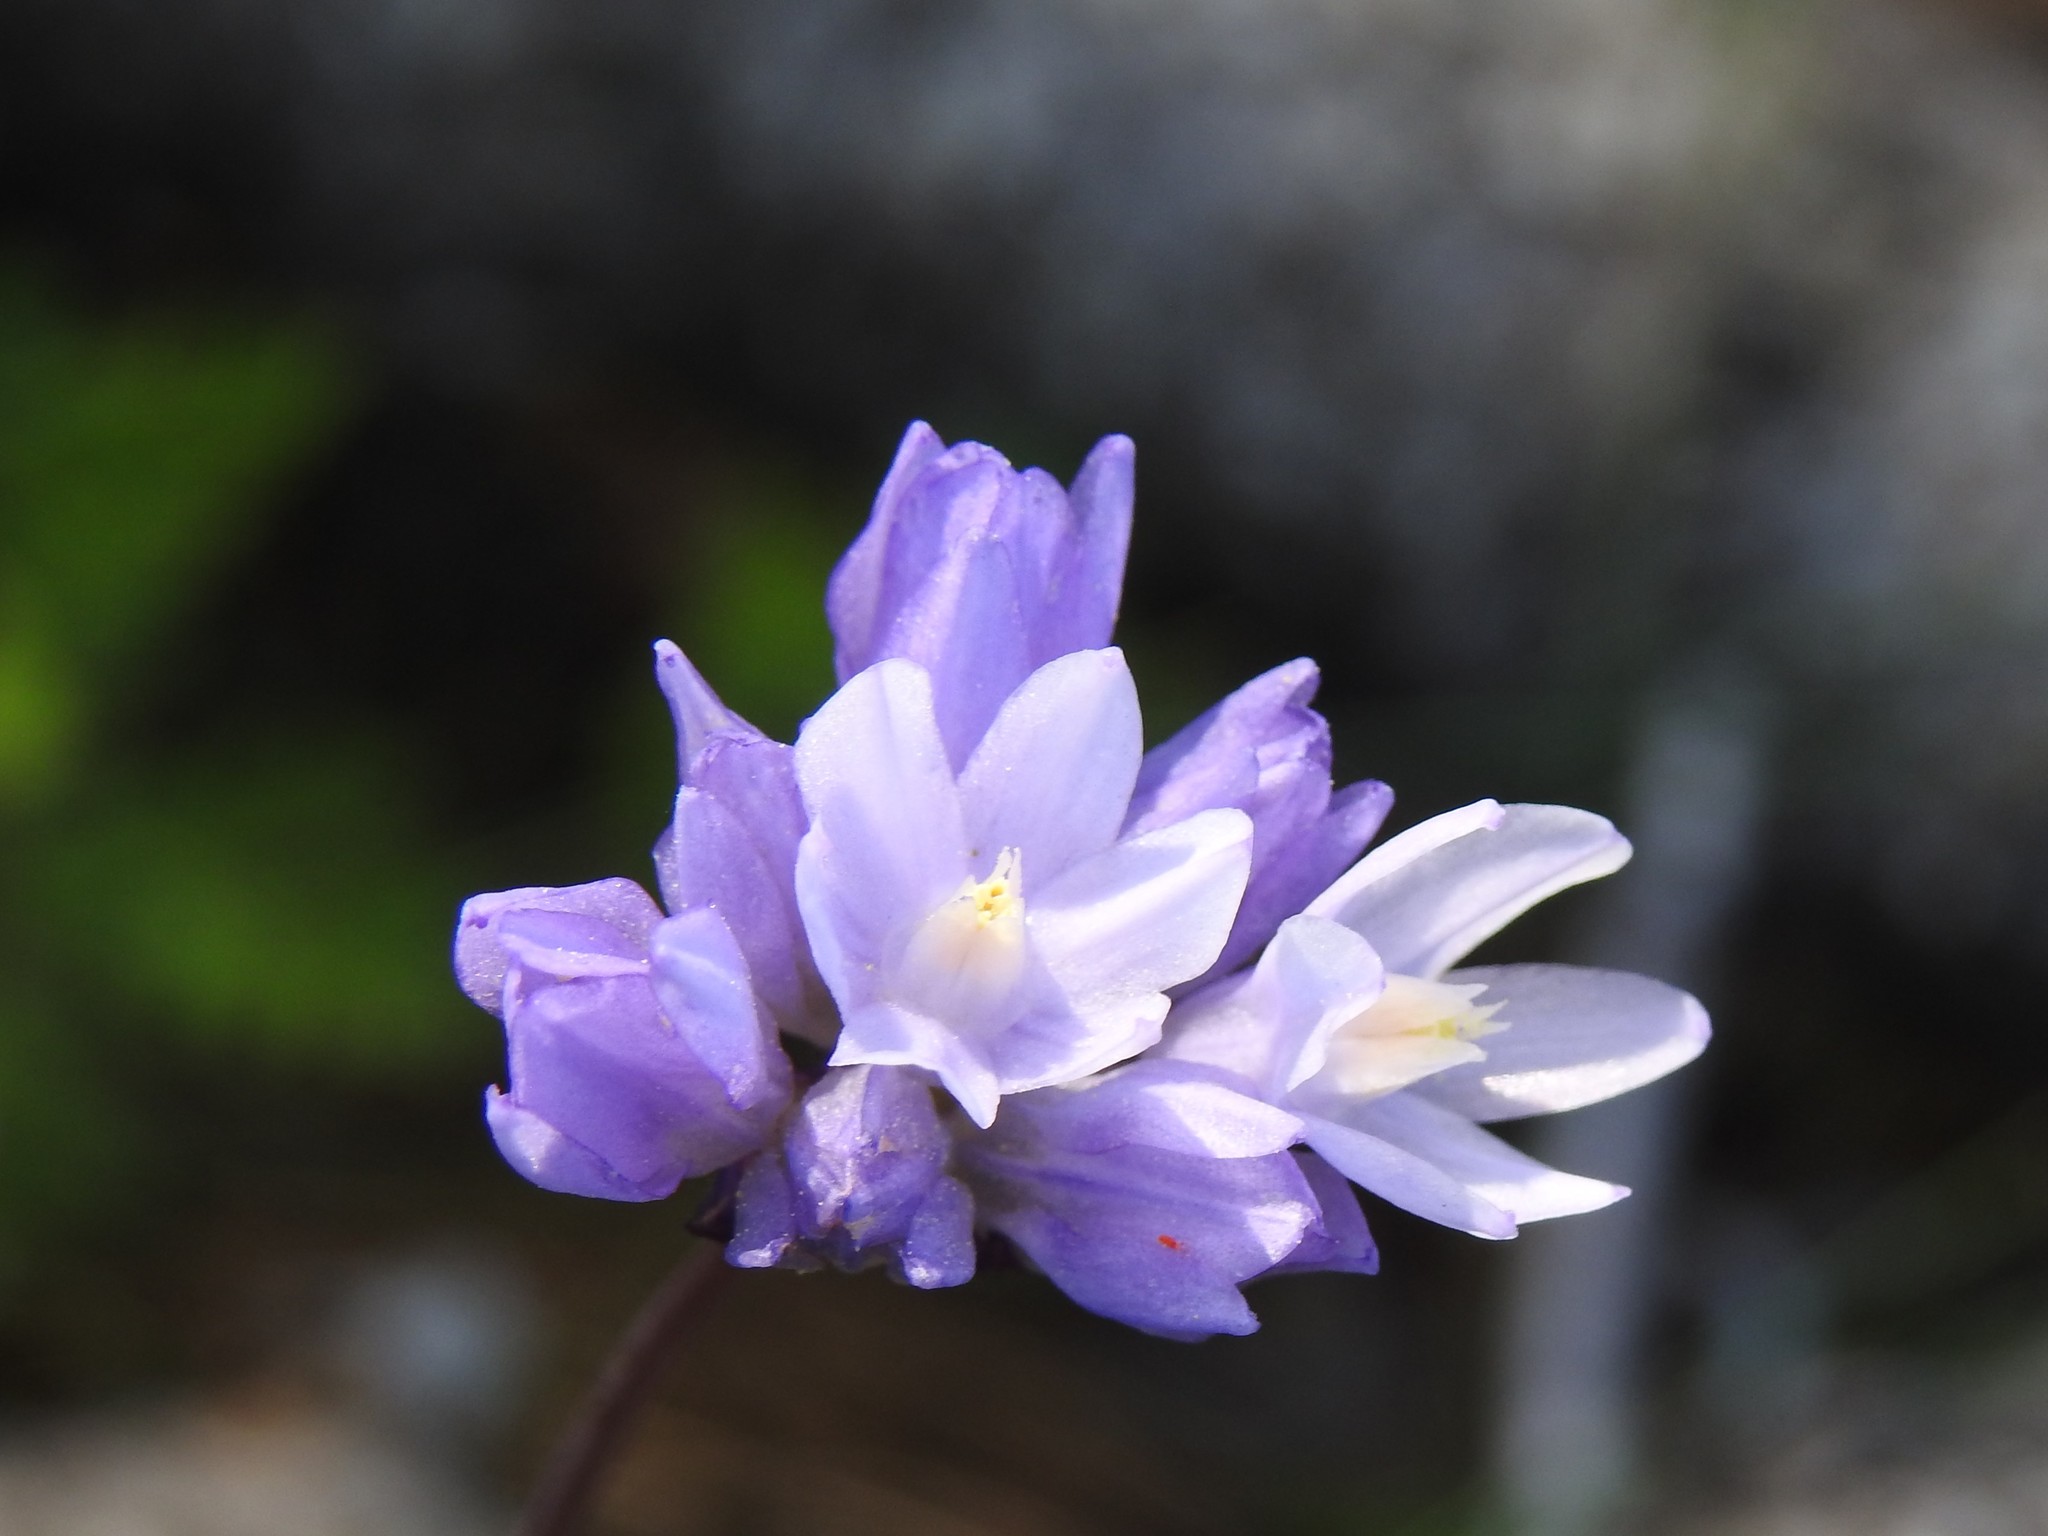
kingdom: Plantae
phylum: Tracheophyta
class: Liliopsida
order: Asparagales
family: Asparagaceae
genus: Dipterostemon
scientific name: Dipterostemon capitatus
